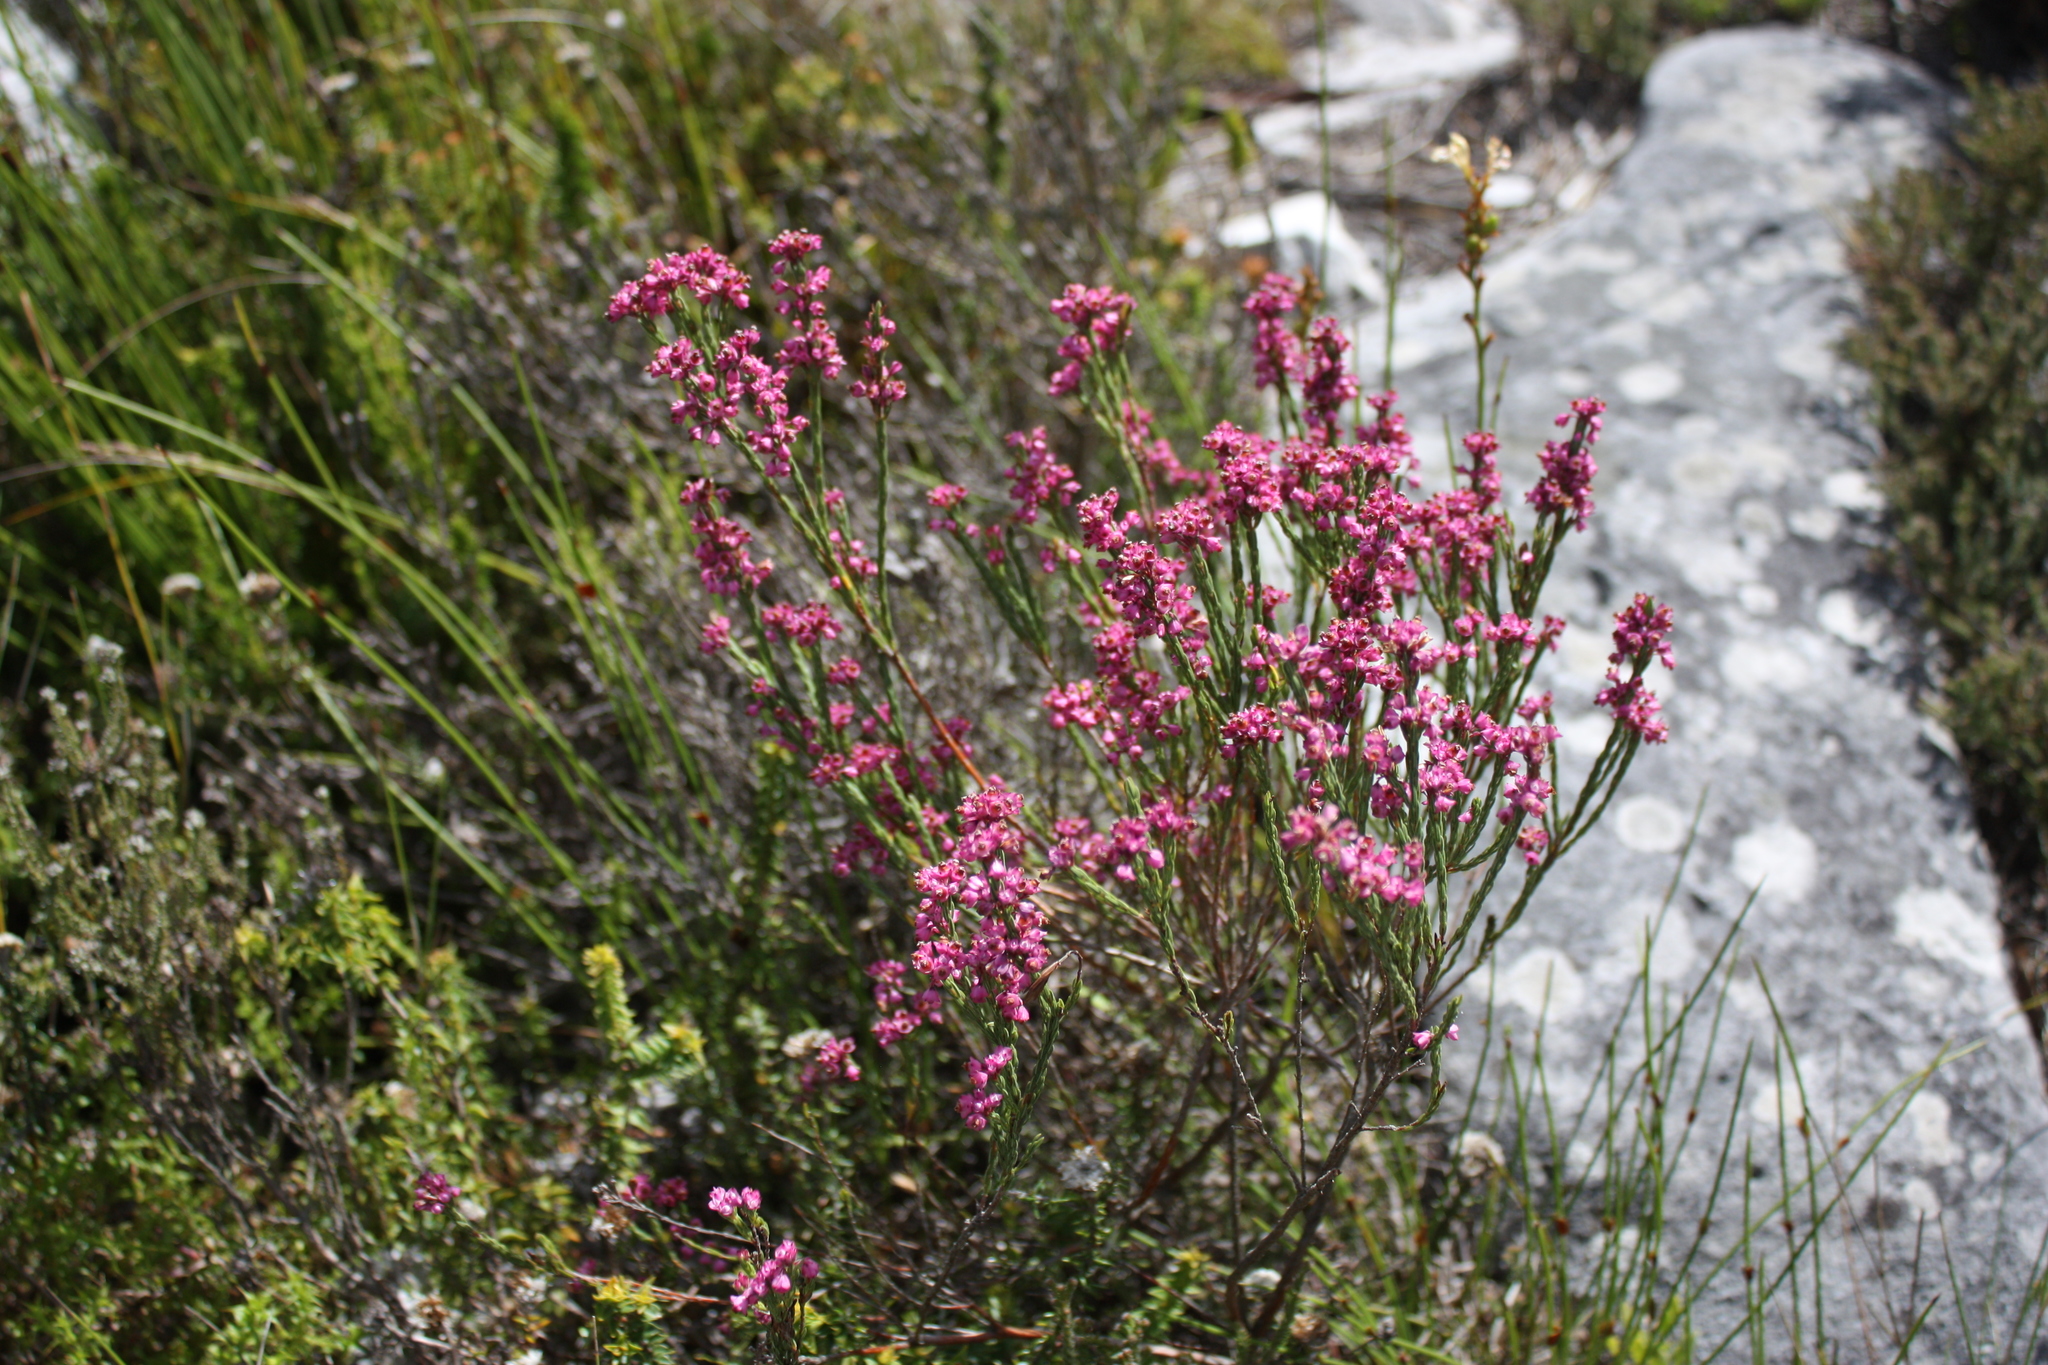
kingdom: Plantae
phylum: Tracheophyta
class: Magnoliopsida
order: Ericales
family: Ericaceae
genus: Erica
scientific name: Erica corifolia
